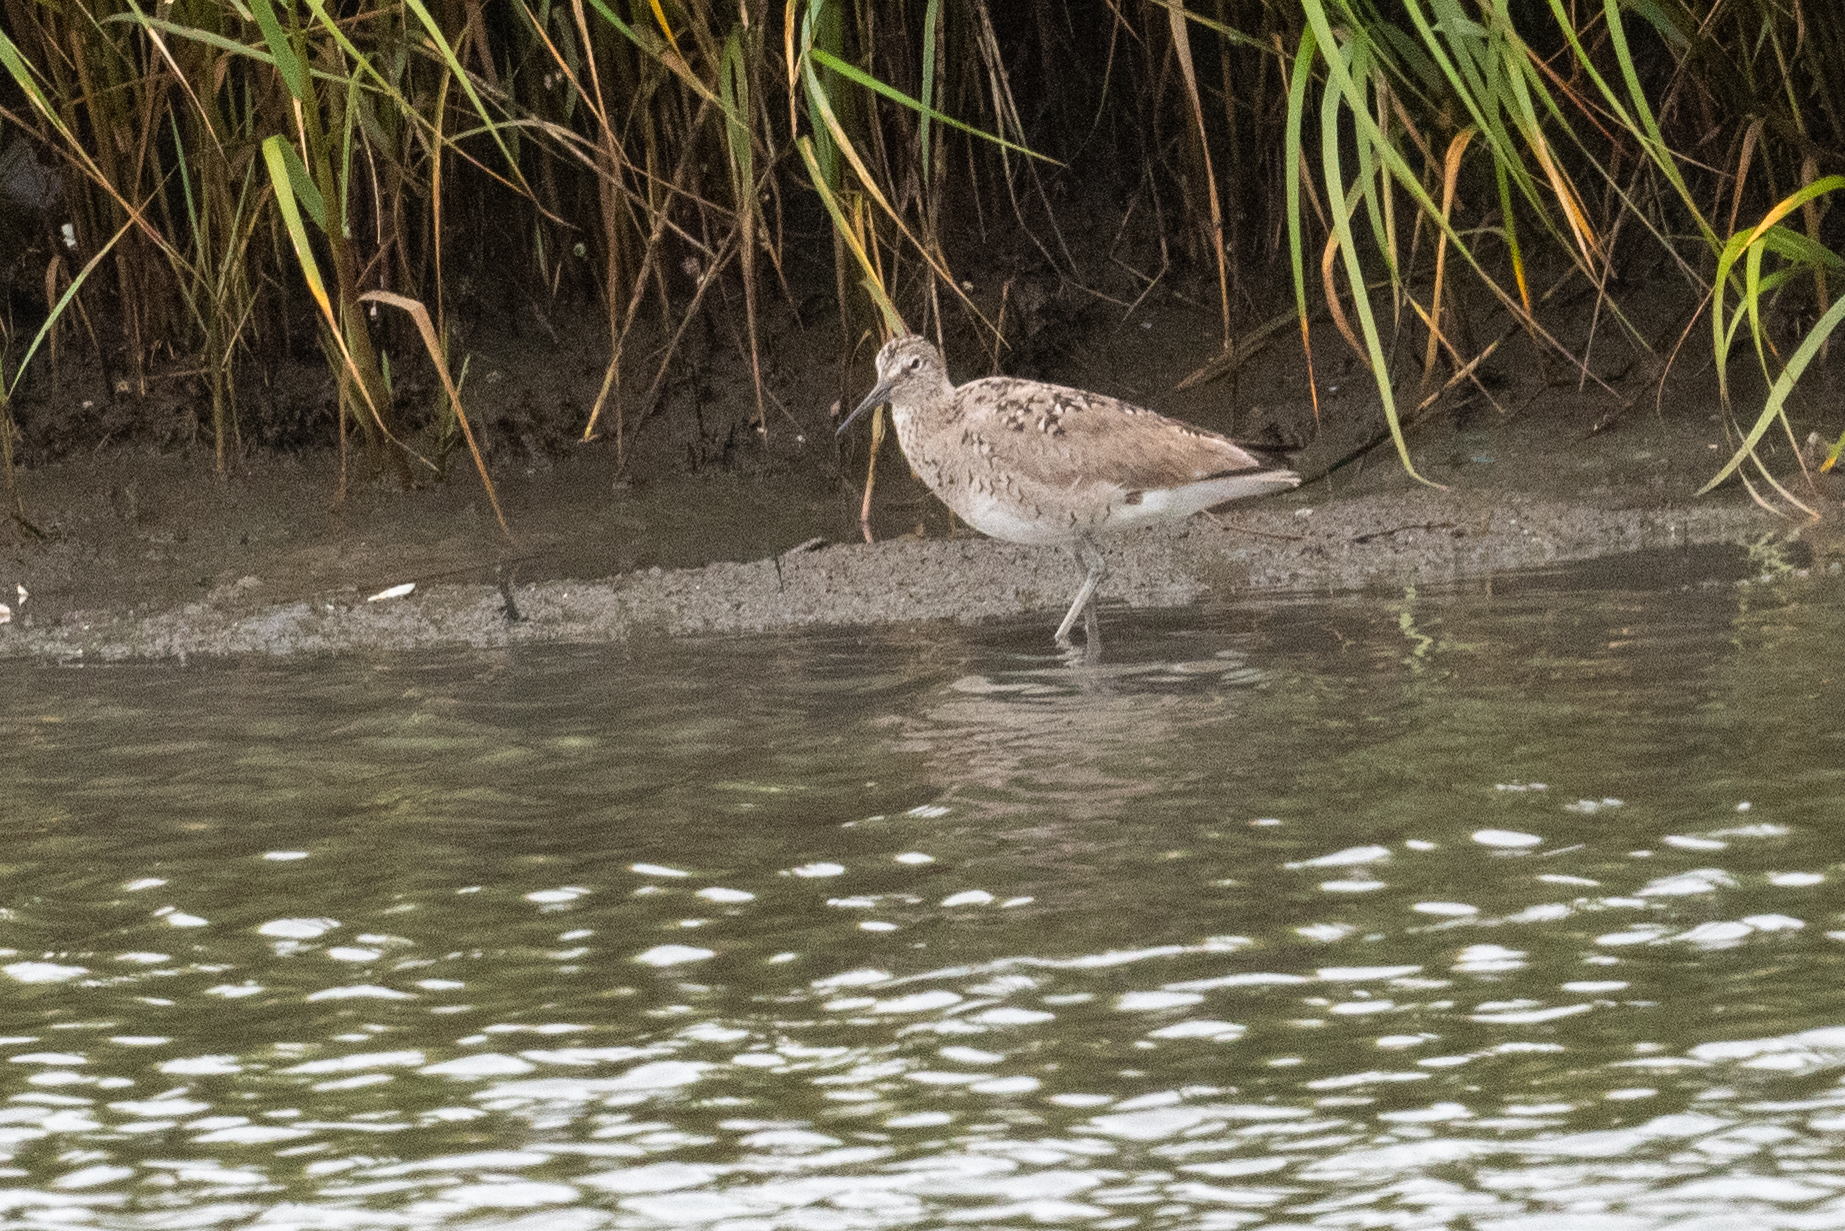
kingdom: Animalia
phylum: Chordata
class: Aves
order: Charadriiformes
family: Scolopacidae
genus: Tringa
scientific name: Tringa semipalmata
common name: Willet
